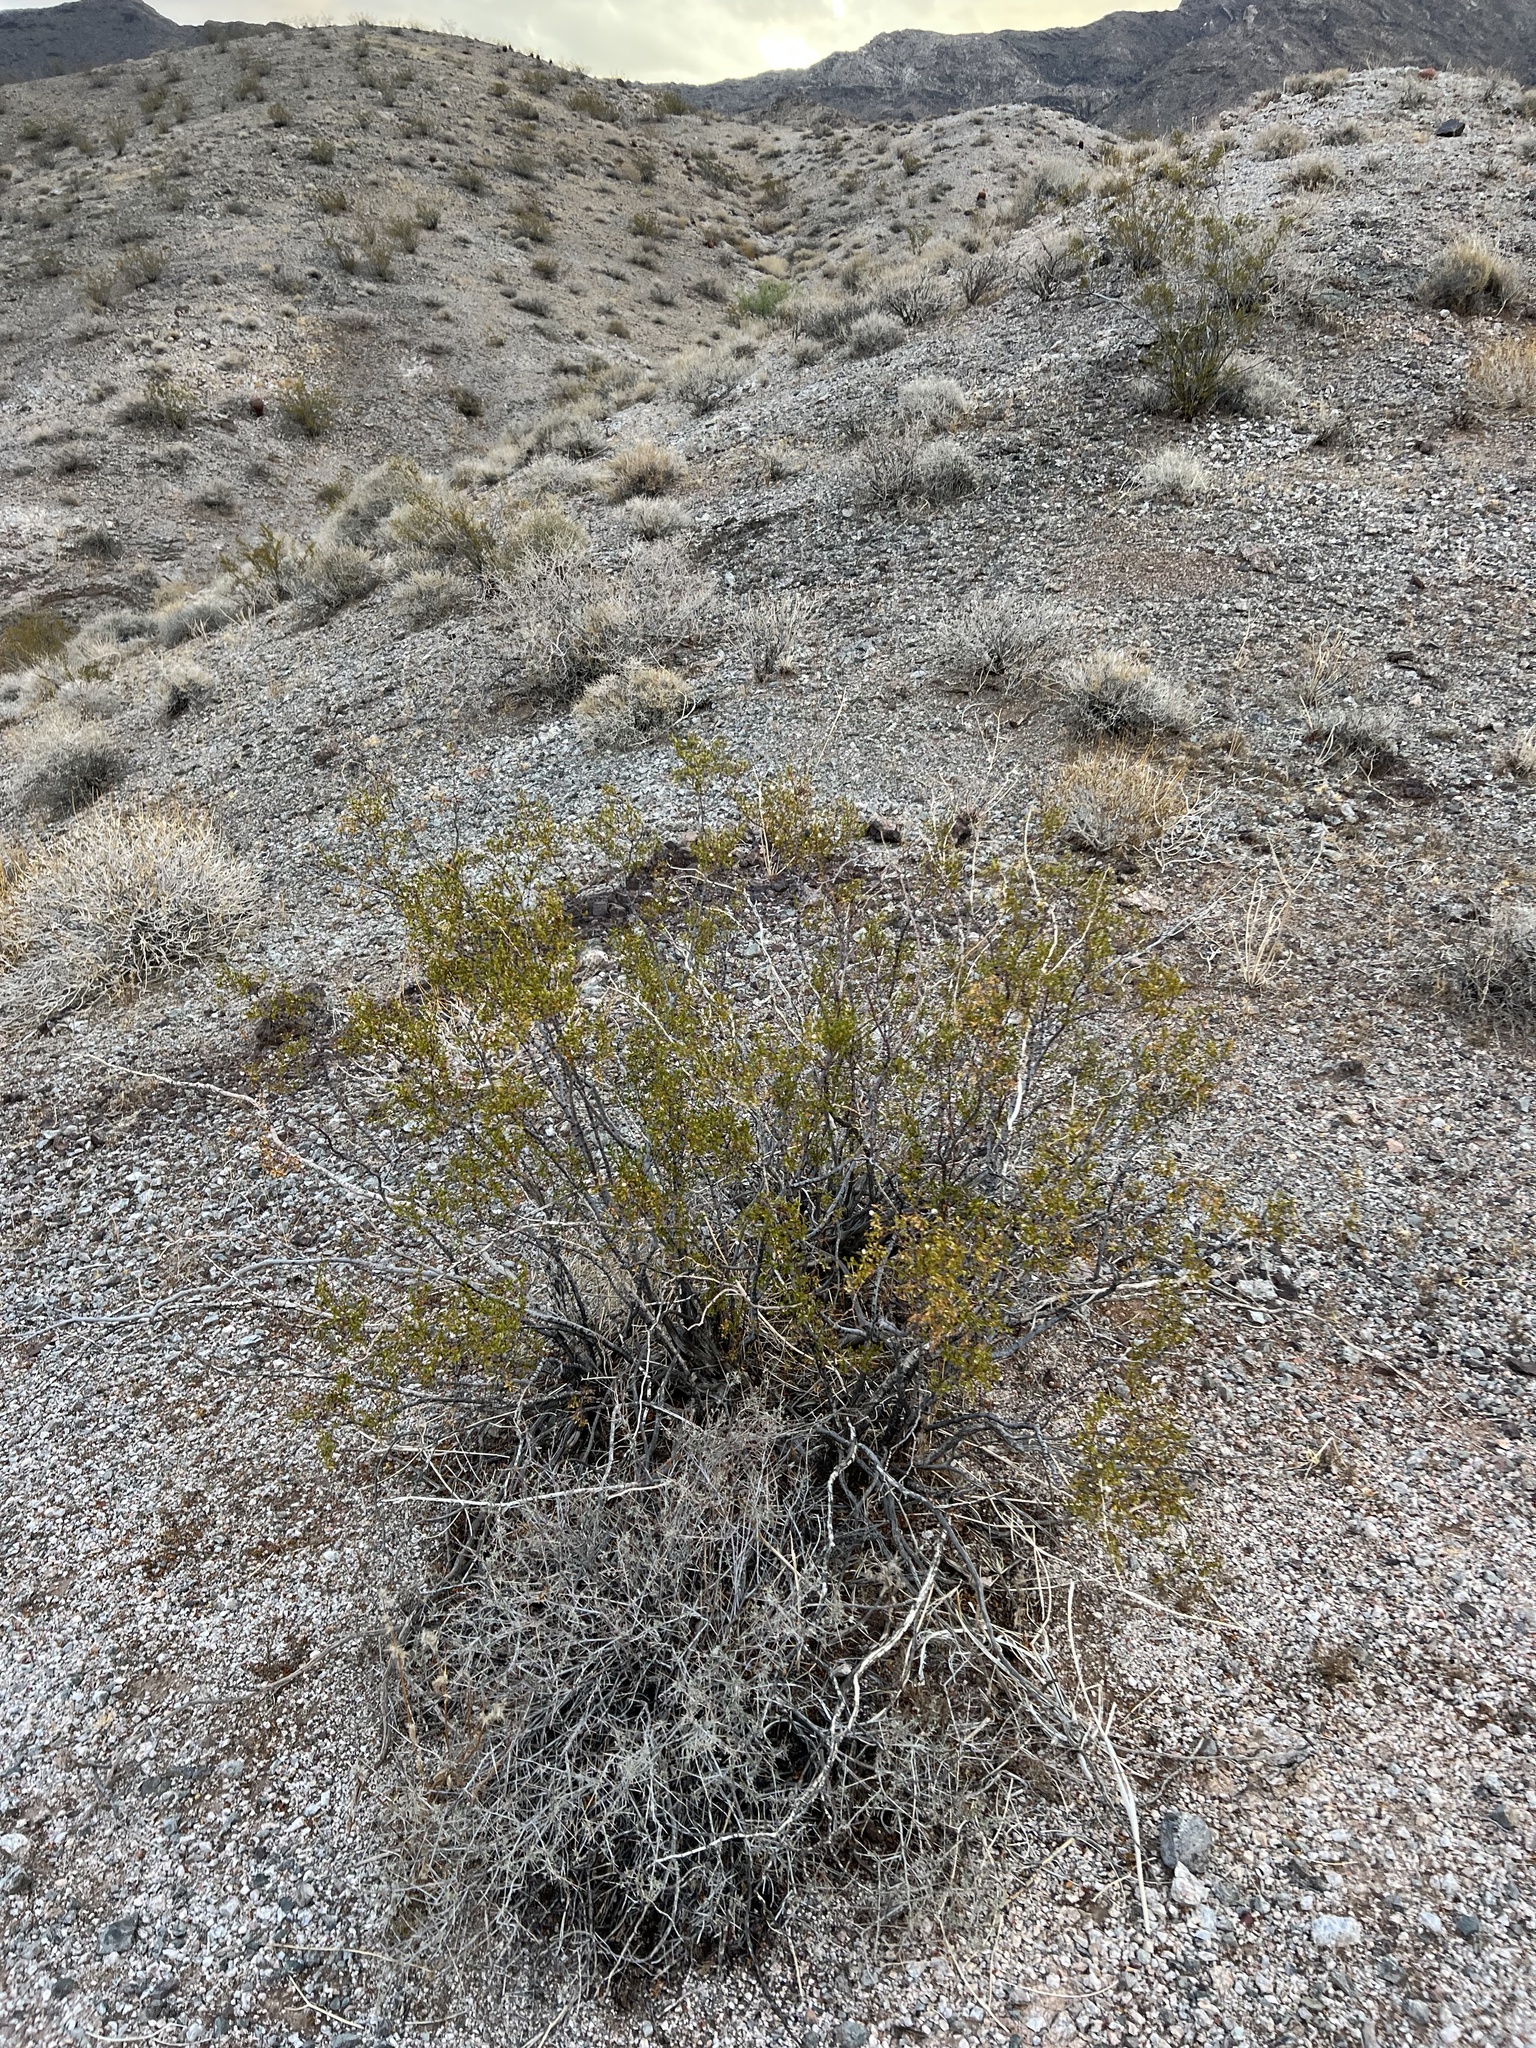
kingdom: Plantae
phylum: Tracheophyta
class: Magnoliopsida
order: Zygophyllales
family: Zygophyllaceae
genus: Larrea
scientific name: Larrea tridentata
